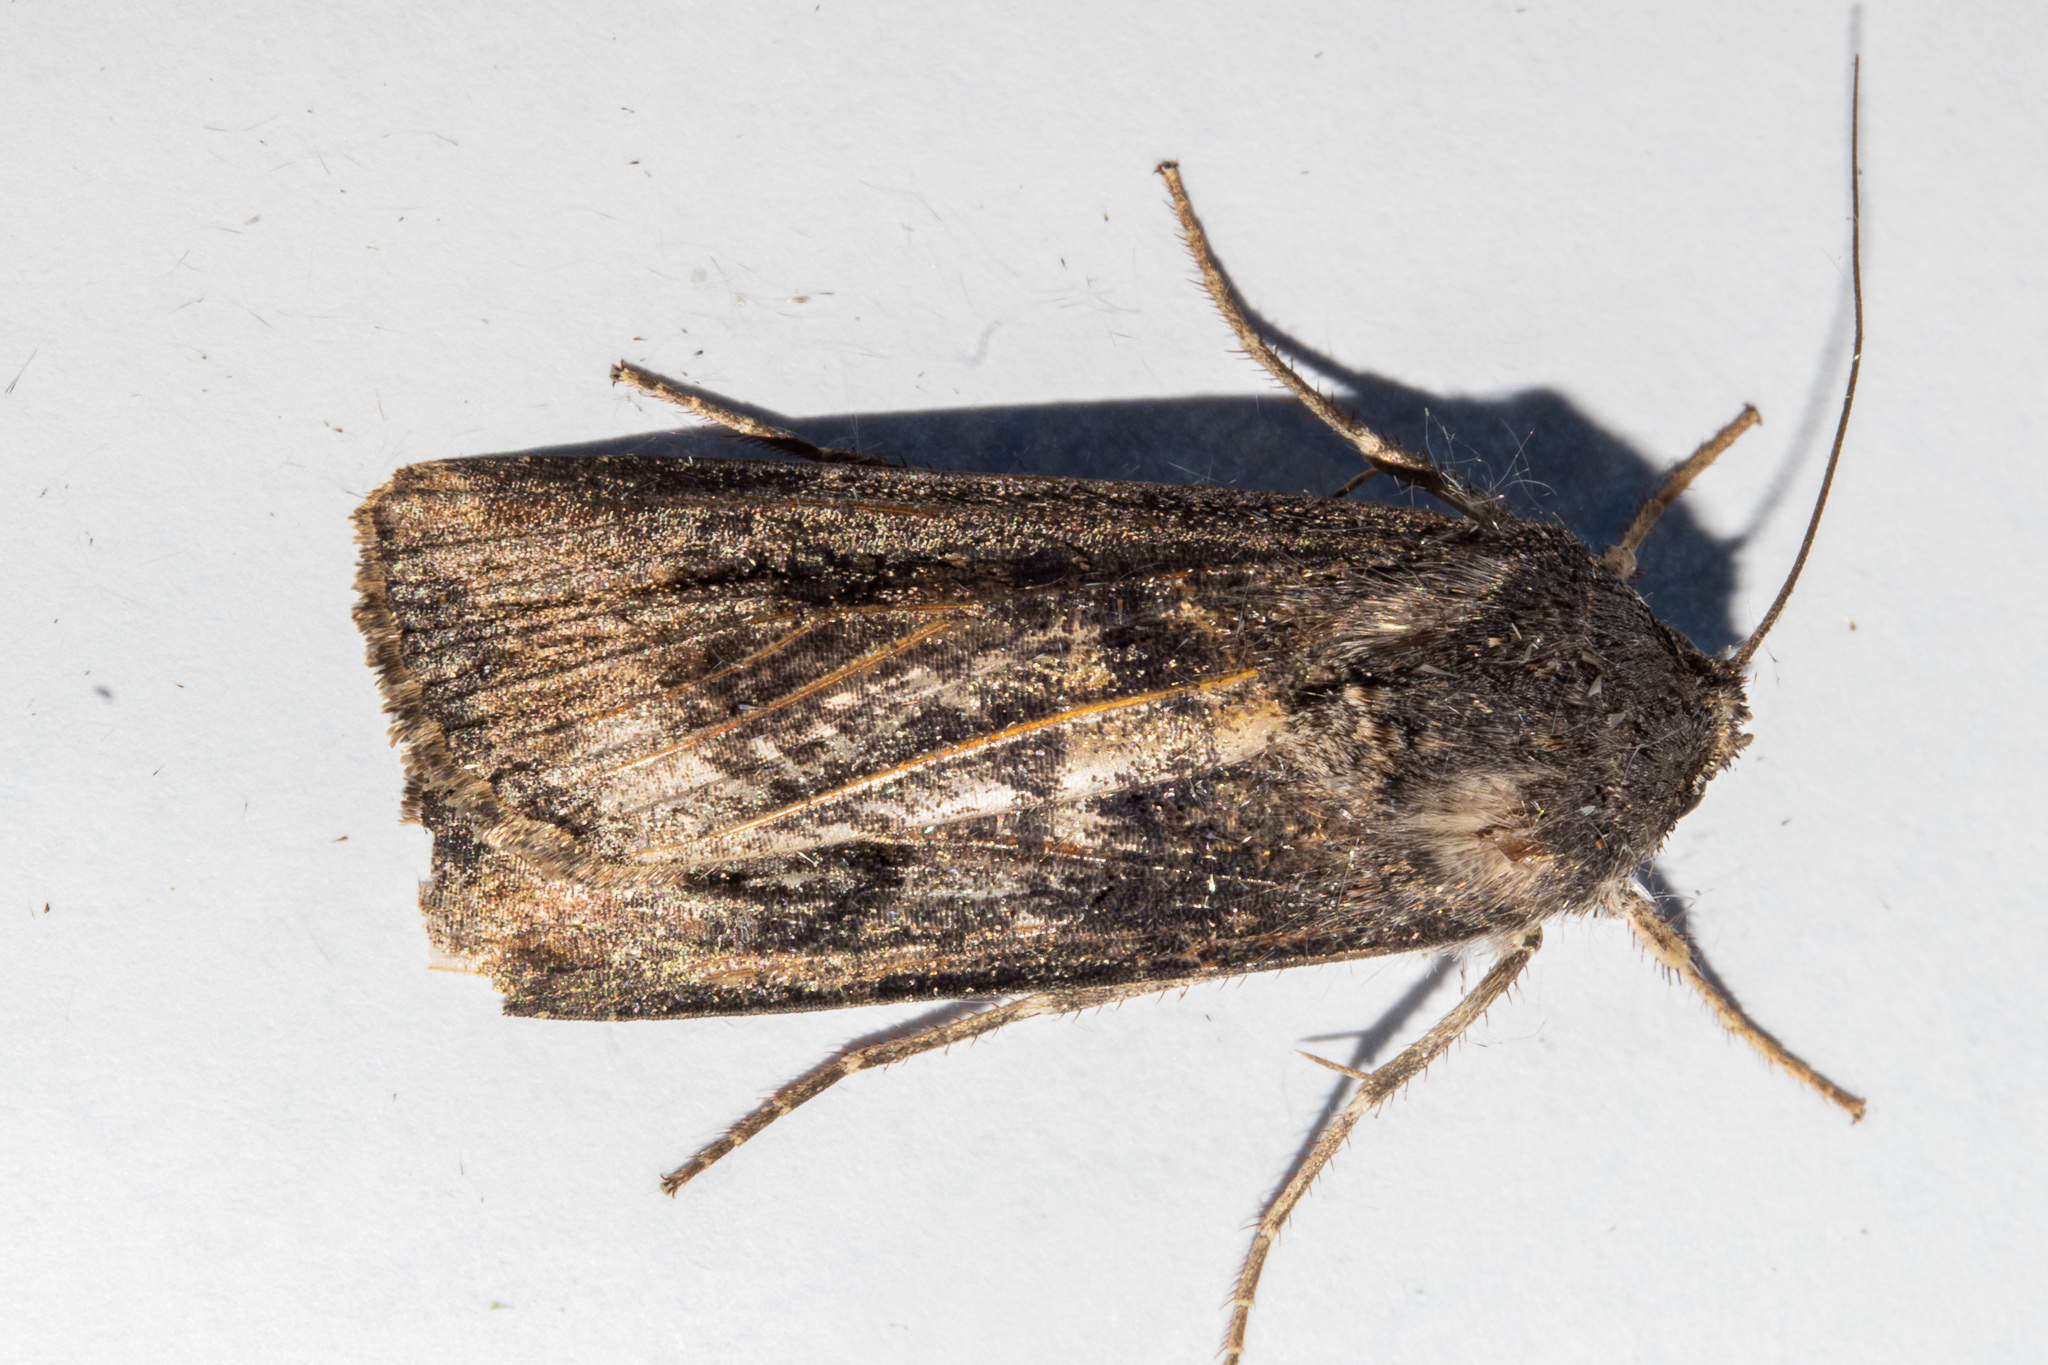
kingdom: Animalia
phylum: Arthropoda
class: Insecta
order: Lepidoptera
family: Noctuidae
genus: Agrotis
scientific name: Agrotis ipsilon
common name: Dark sword-grass
